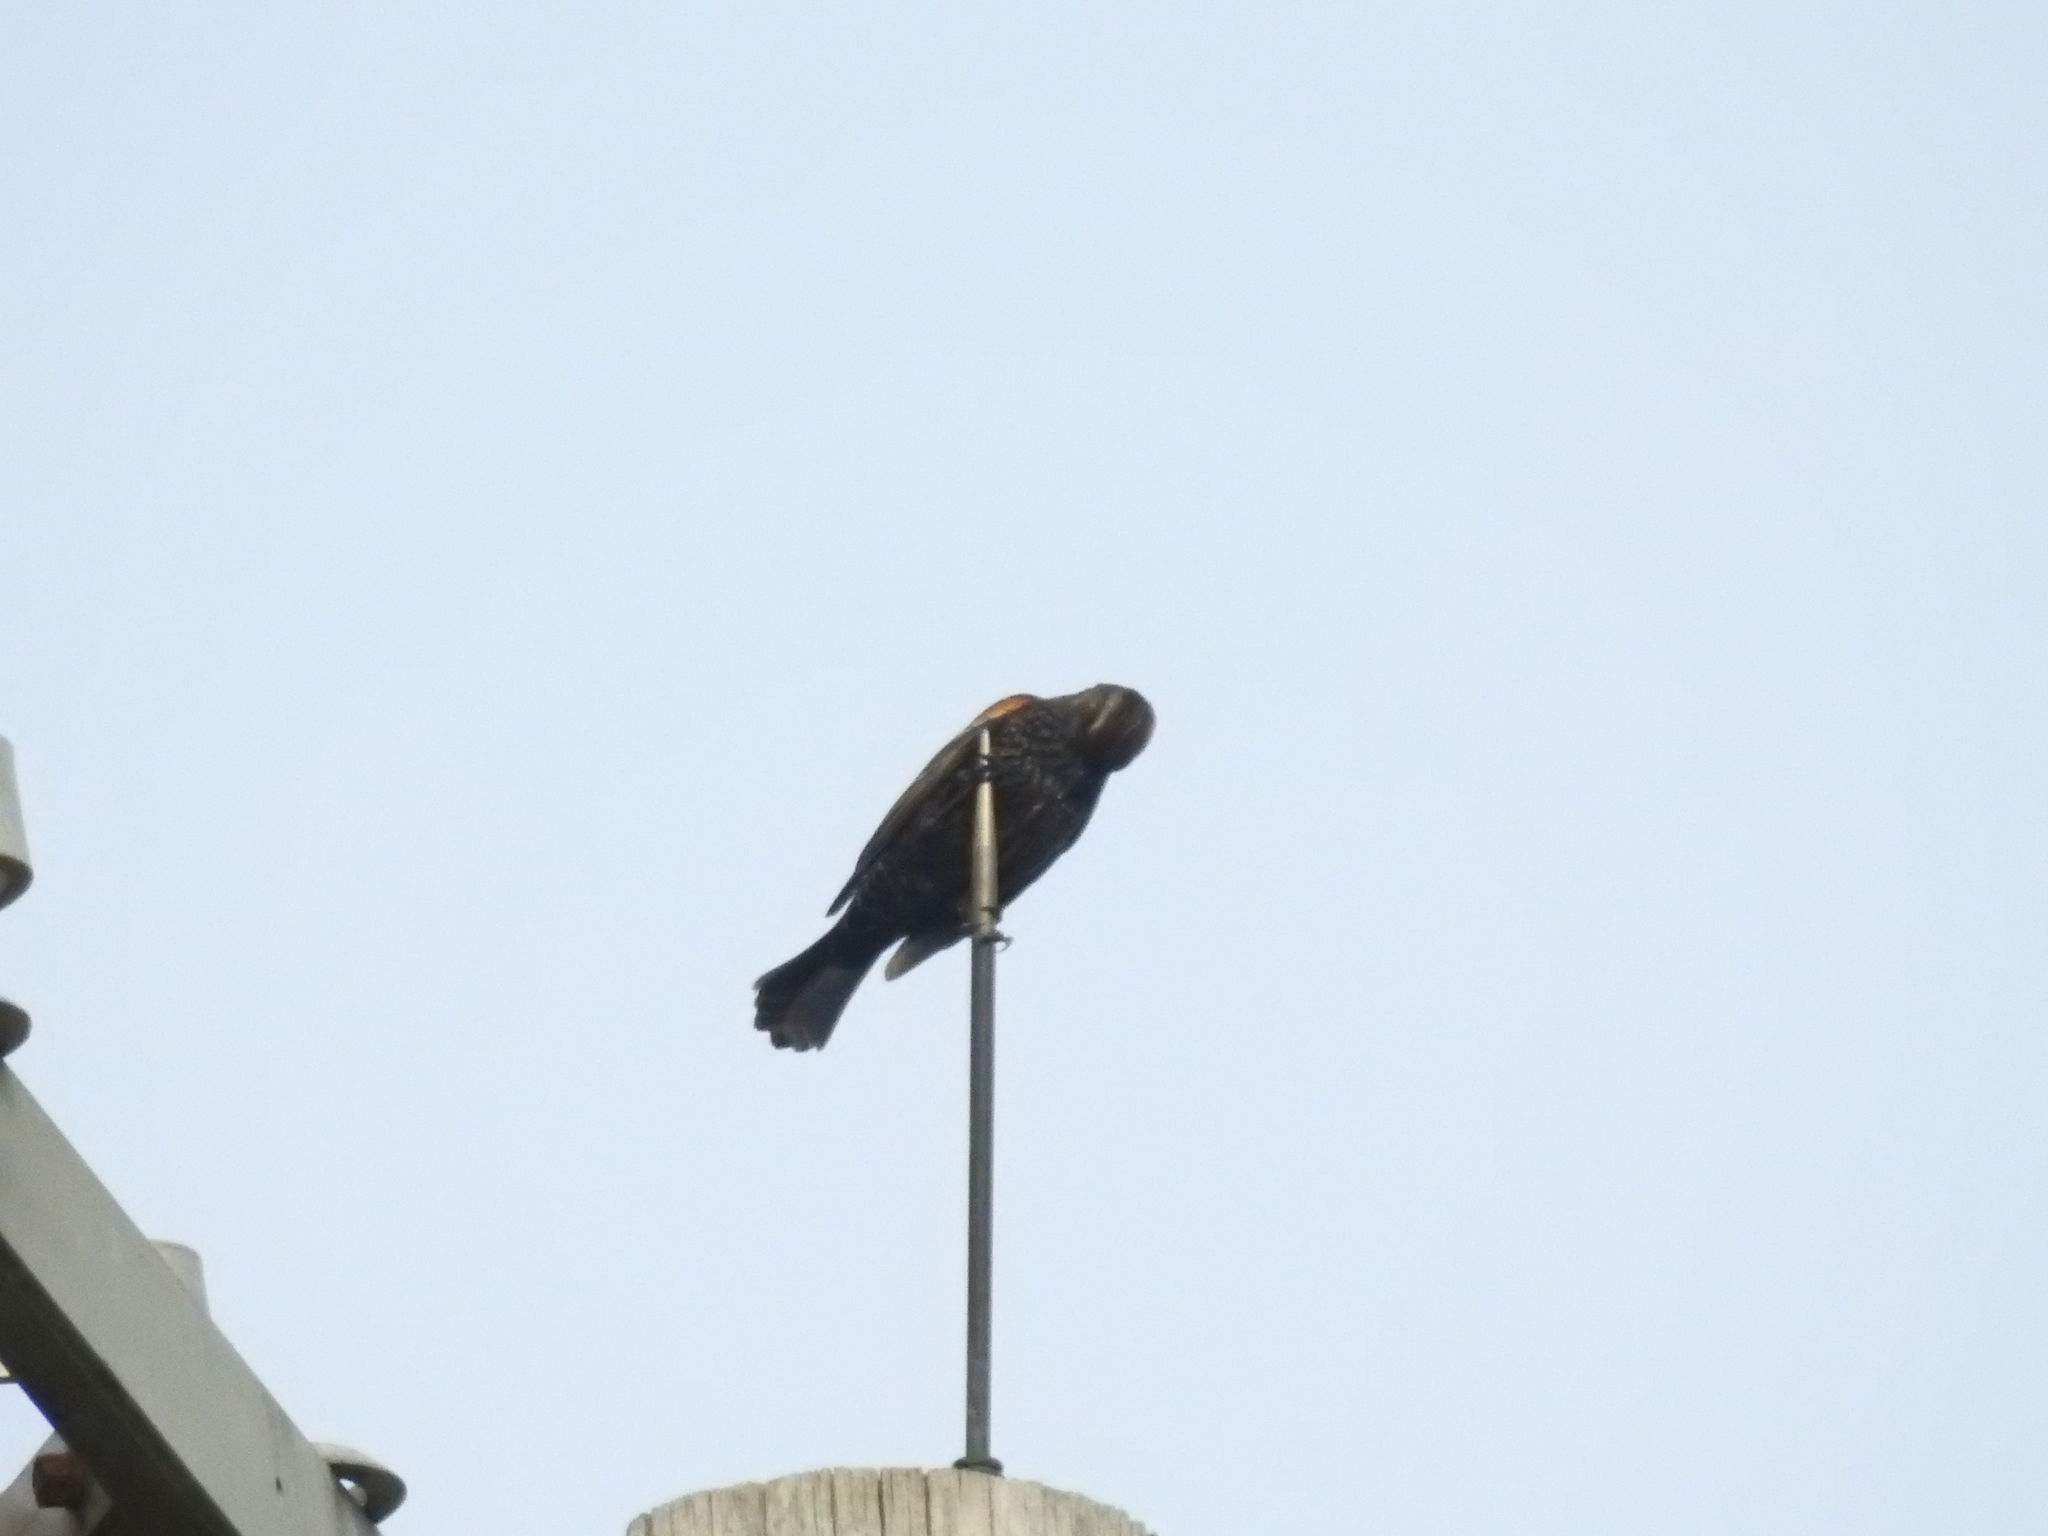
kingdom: Animalia
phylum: Chordata
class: Aves
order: Passeriformes
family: Icteridae
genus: Agelaius
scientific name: Agelaius phoeniceus
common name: Red-winged blackbird
